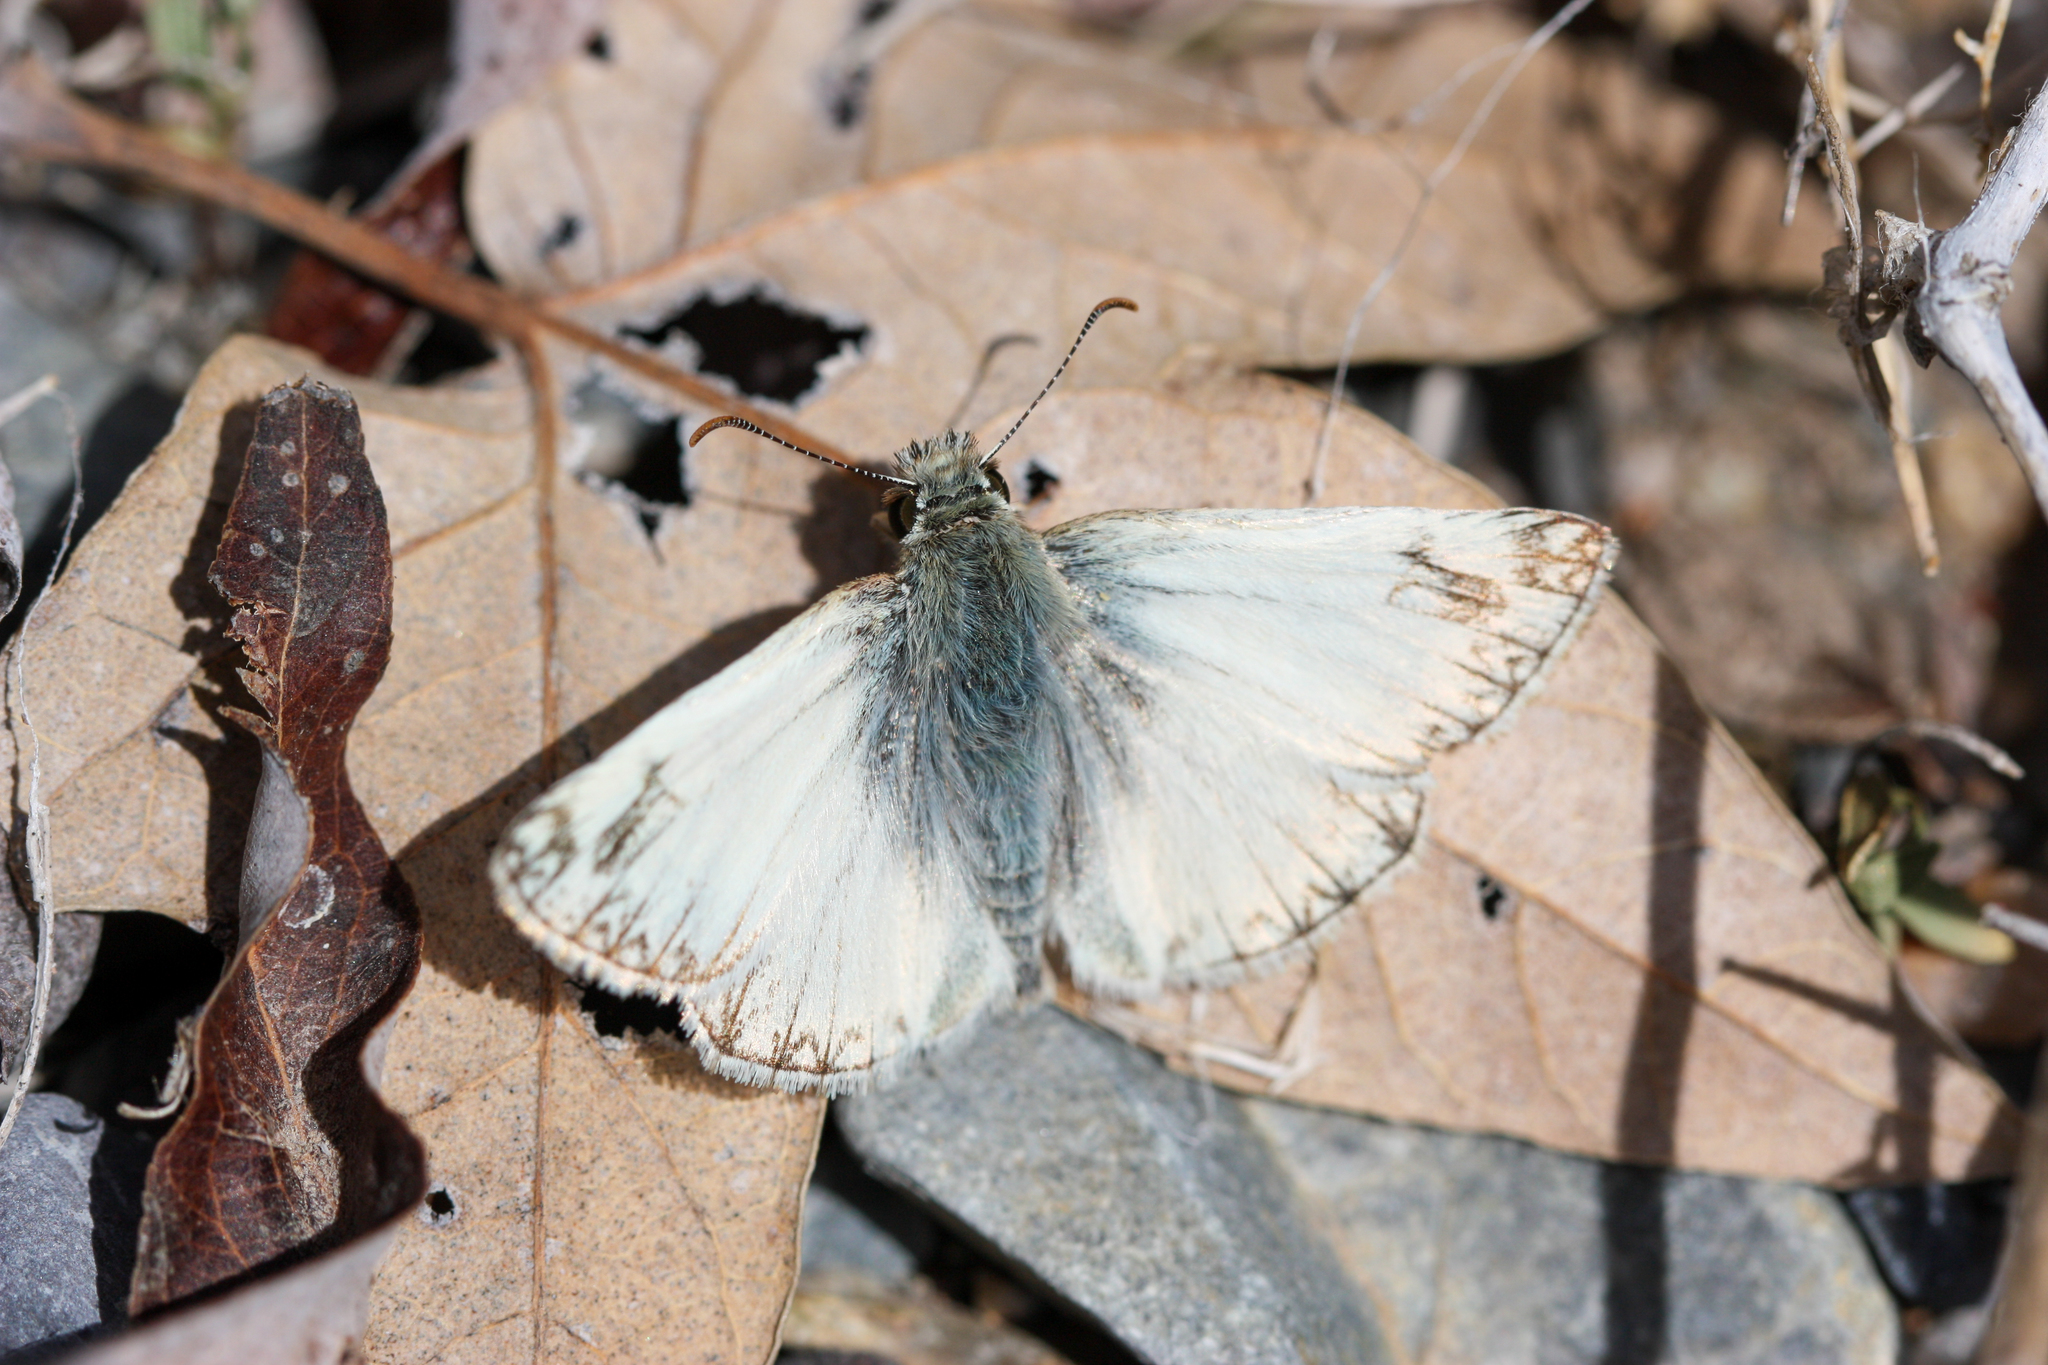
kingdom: Animalia
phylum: Arthropoda
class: Insecta
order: Lepidoptera
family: Hesperiidae
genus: Heliopetes
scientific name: Heliopetes ericetorum
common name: Northern white-skipper
